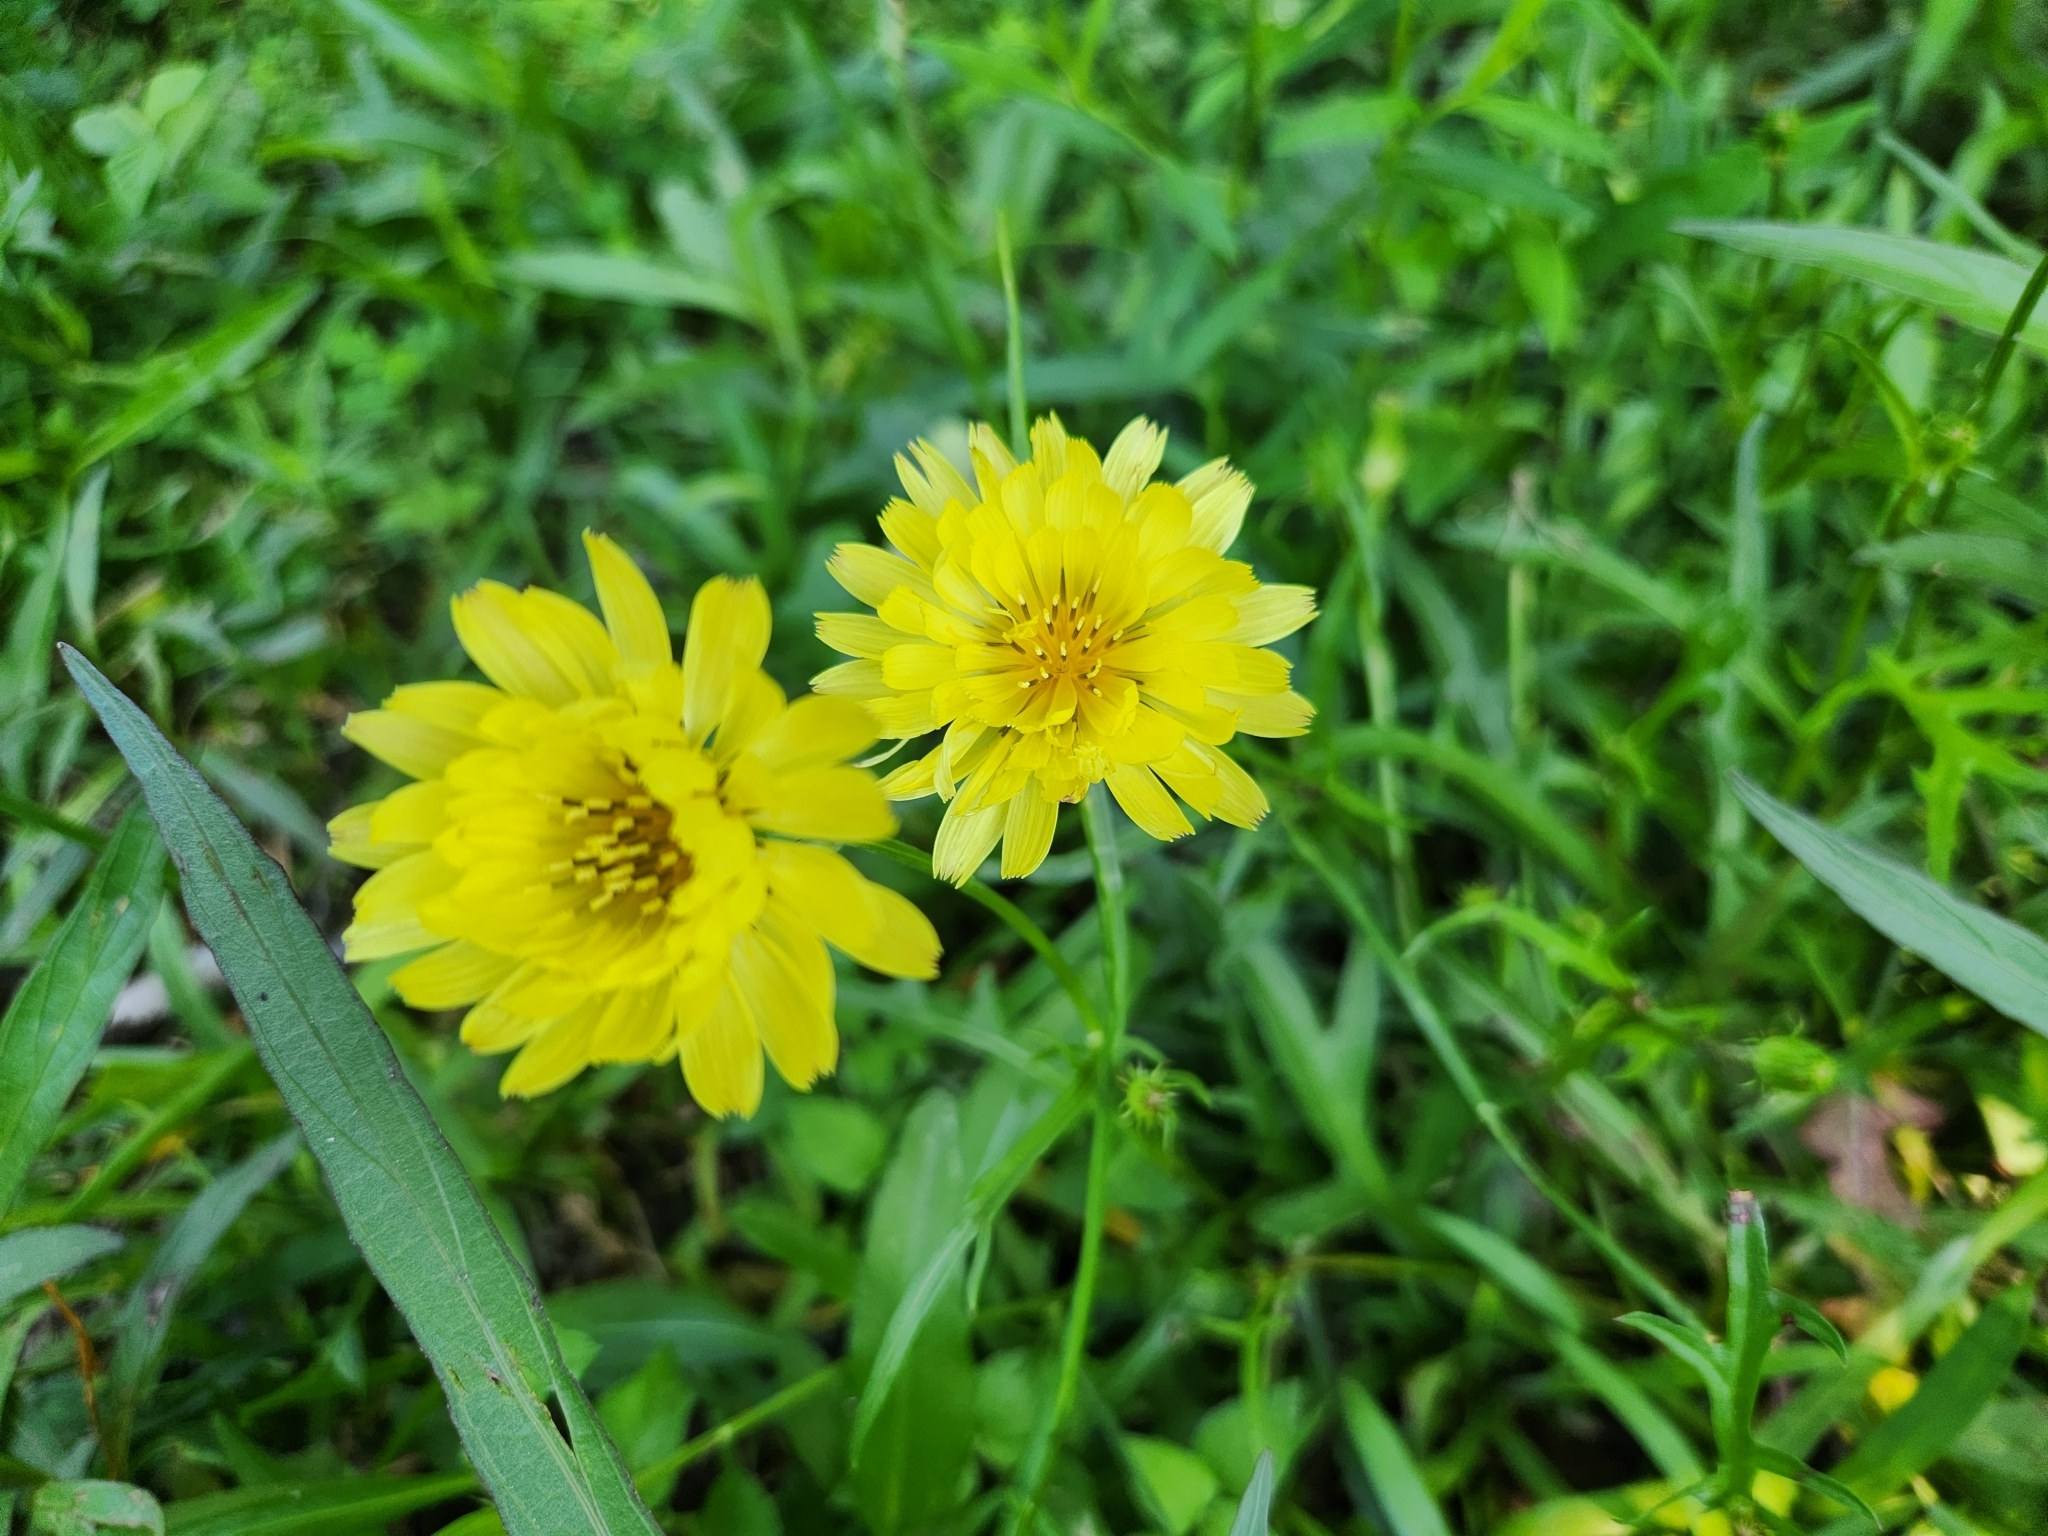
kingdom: Plantae
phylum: Tracheophyta
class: Magnoliopsida
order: Asterales
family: Asteraceae
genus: Pyrrhopappus
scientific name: Pyrrhopappus pauciflorus
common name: Texas false dandelion
